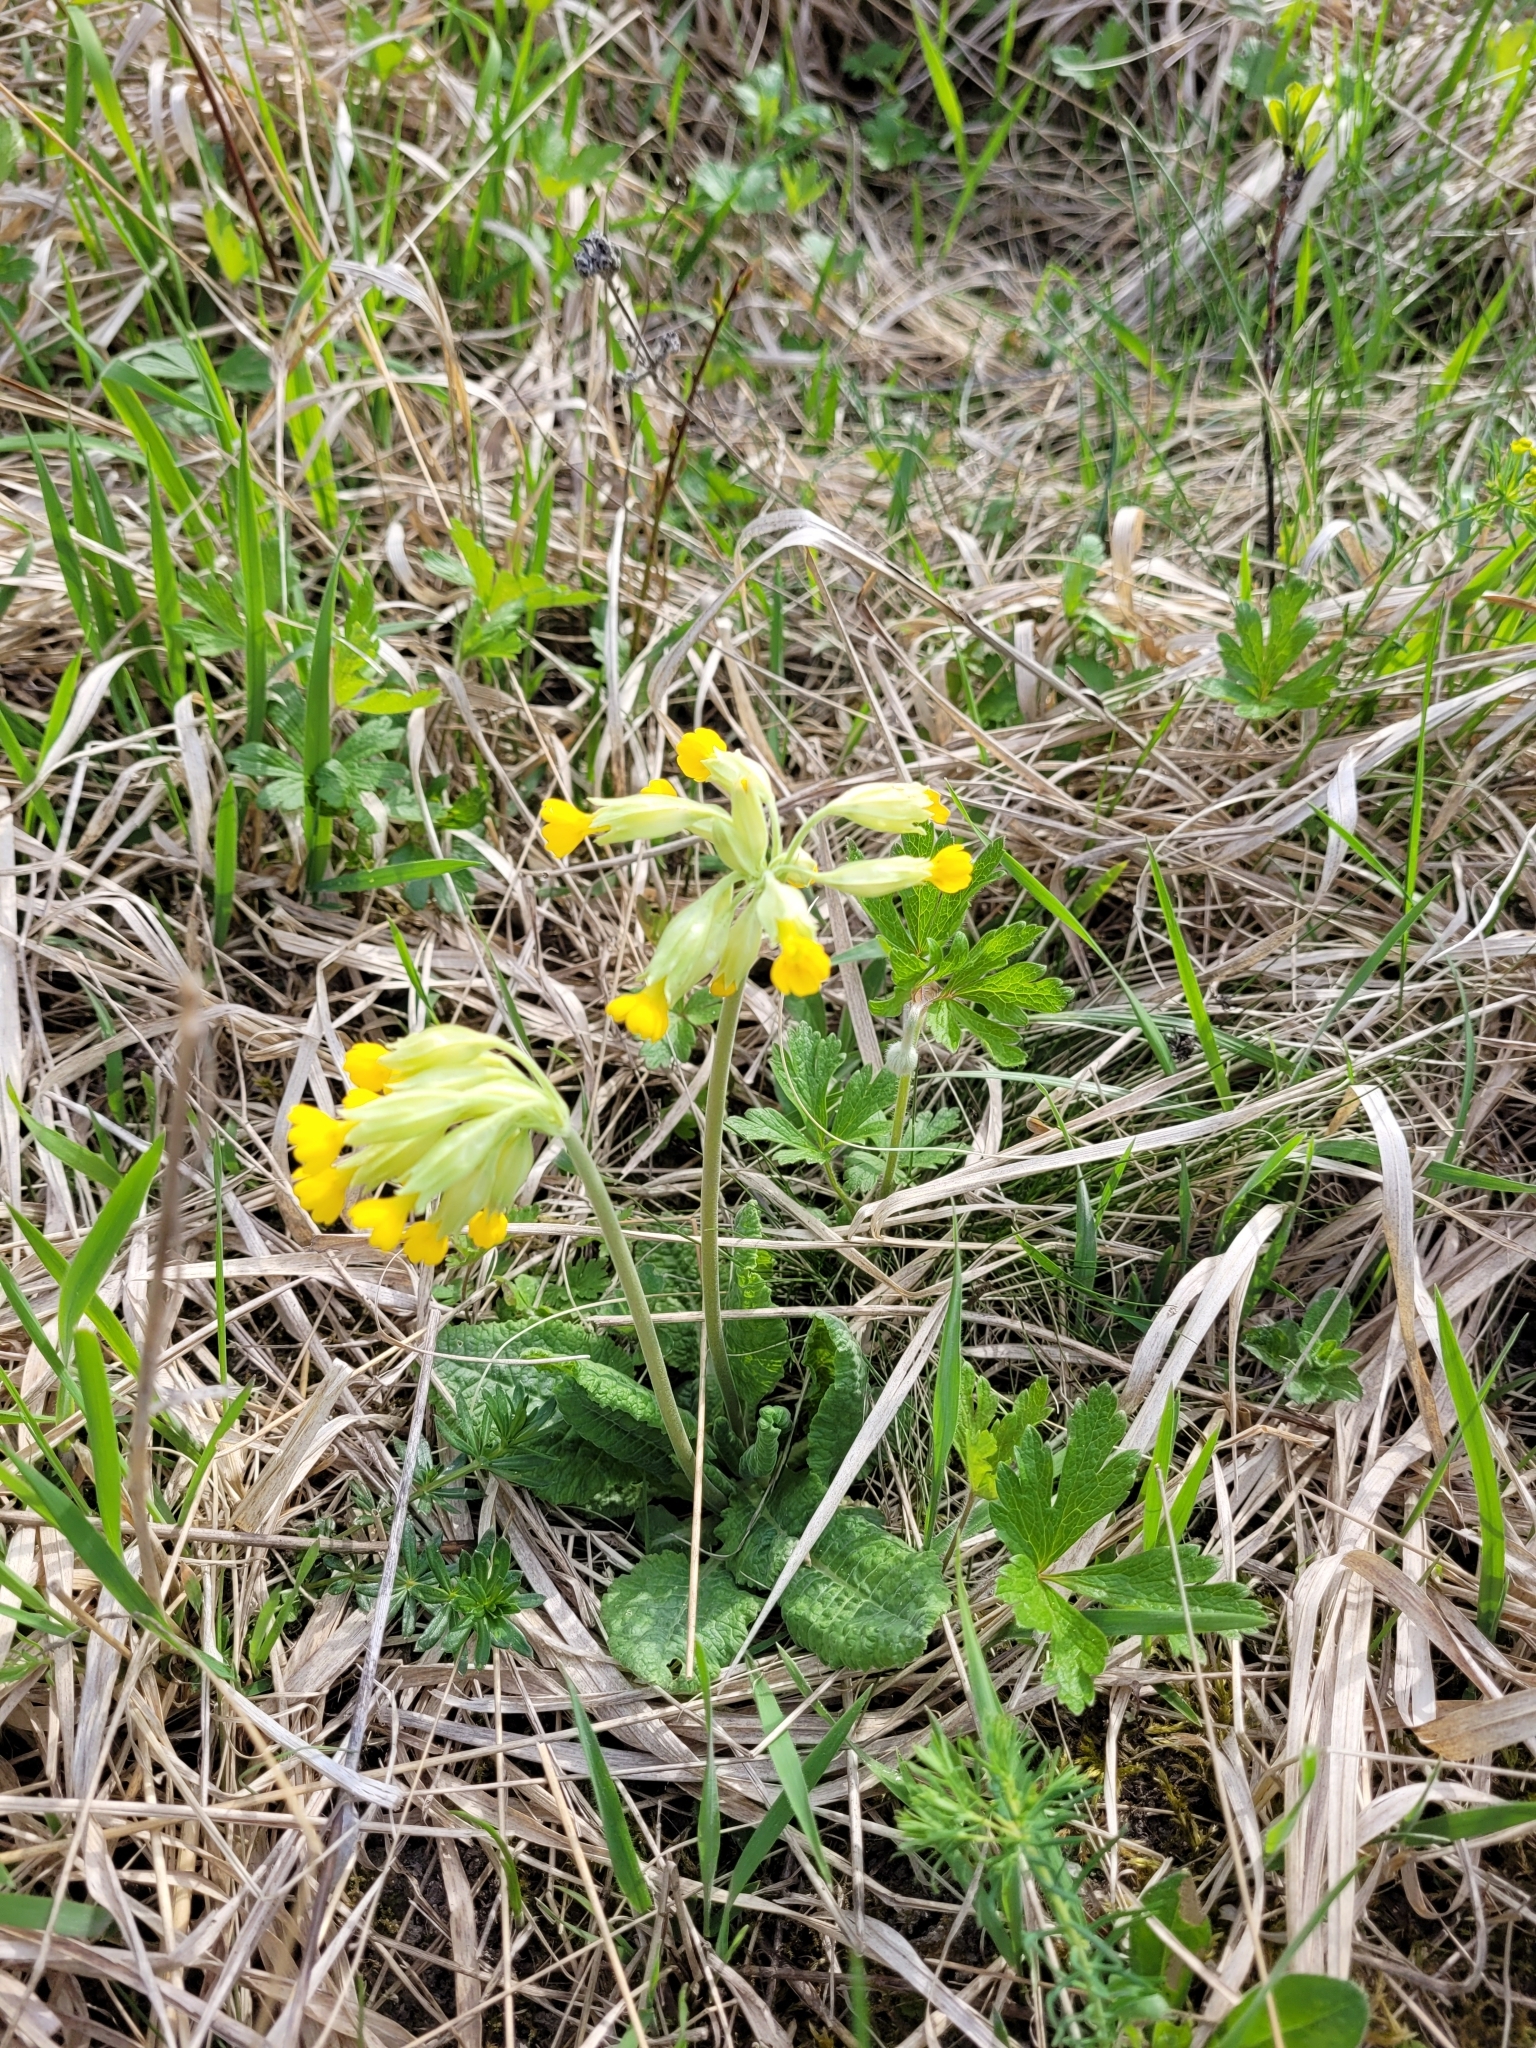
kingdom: Plantae
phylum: Tracheophyta
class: Magnoliopsida
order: Ericales
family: Primulaceae
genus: Primula
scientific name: Primula veris
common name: Cowslip
